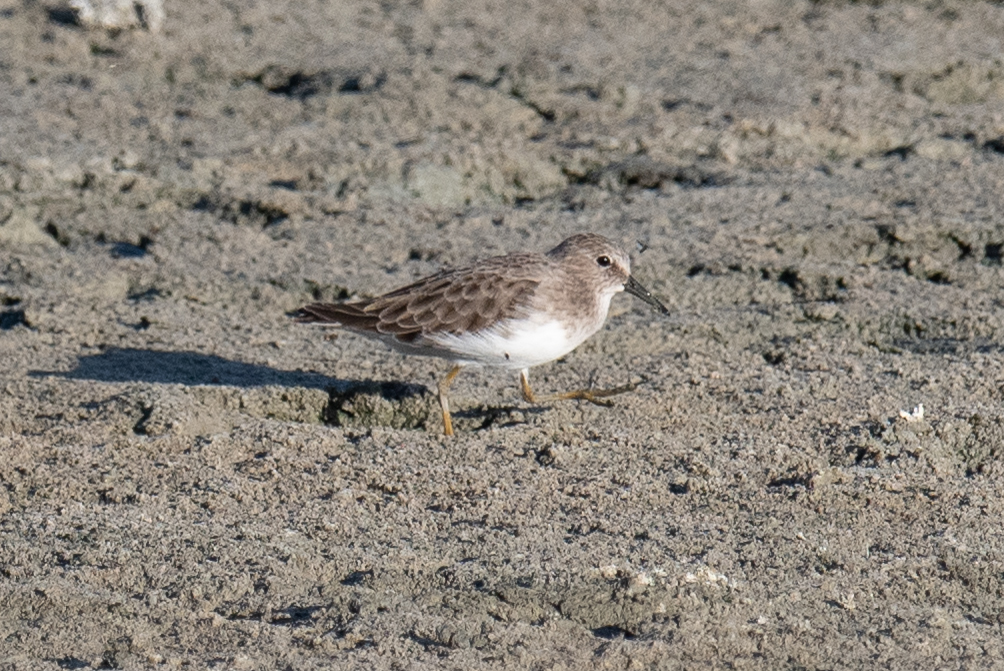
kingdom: Animalia
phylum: Chordata
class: Aves
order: Charadriiformes
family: Scolopacidae
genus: Calidris
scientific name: Calidris minutilla
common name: Least sandpiper
